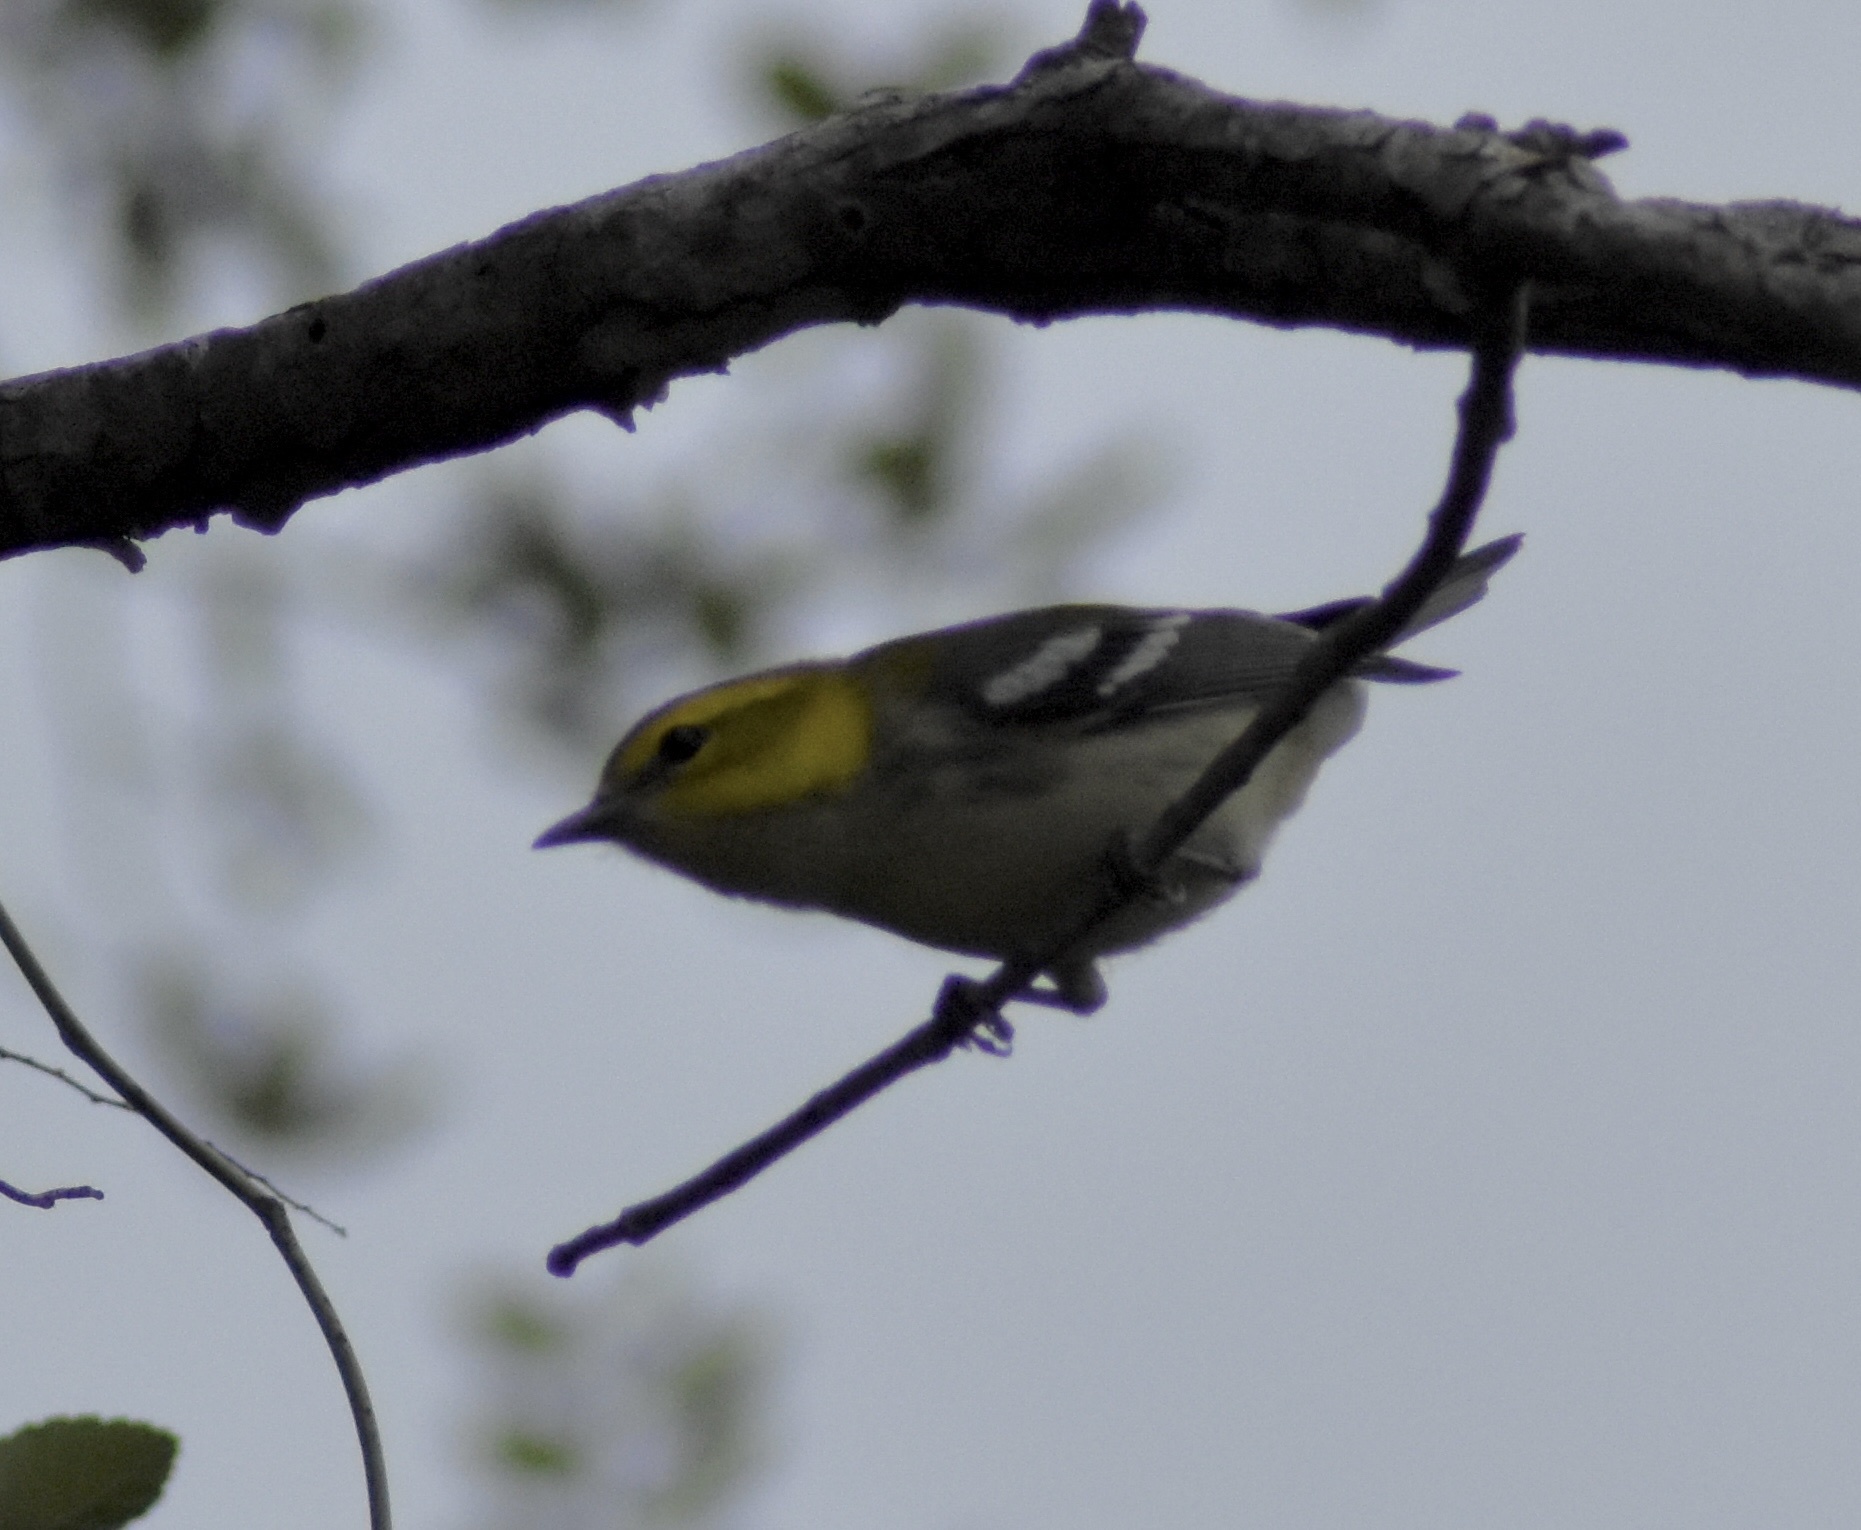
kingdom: Animalia
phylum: Chordata
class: Aves
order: Passeriformes
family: Parulidae
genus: Setophaga
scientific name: Setophaga virens
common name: Black-throated green warbler
